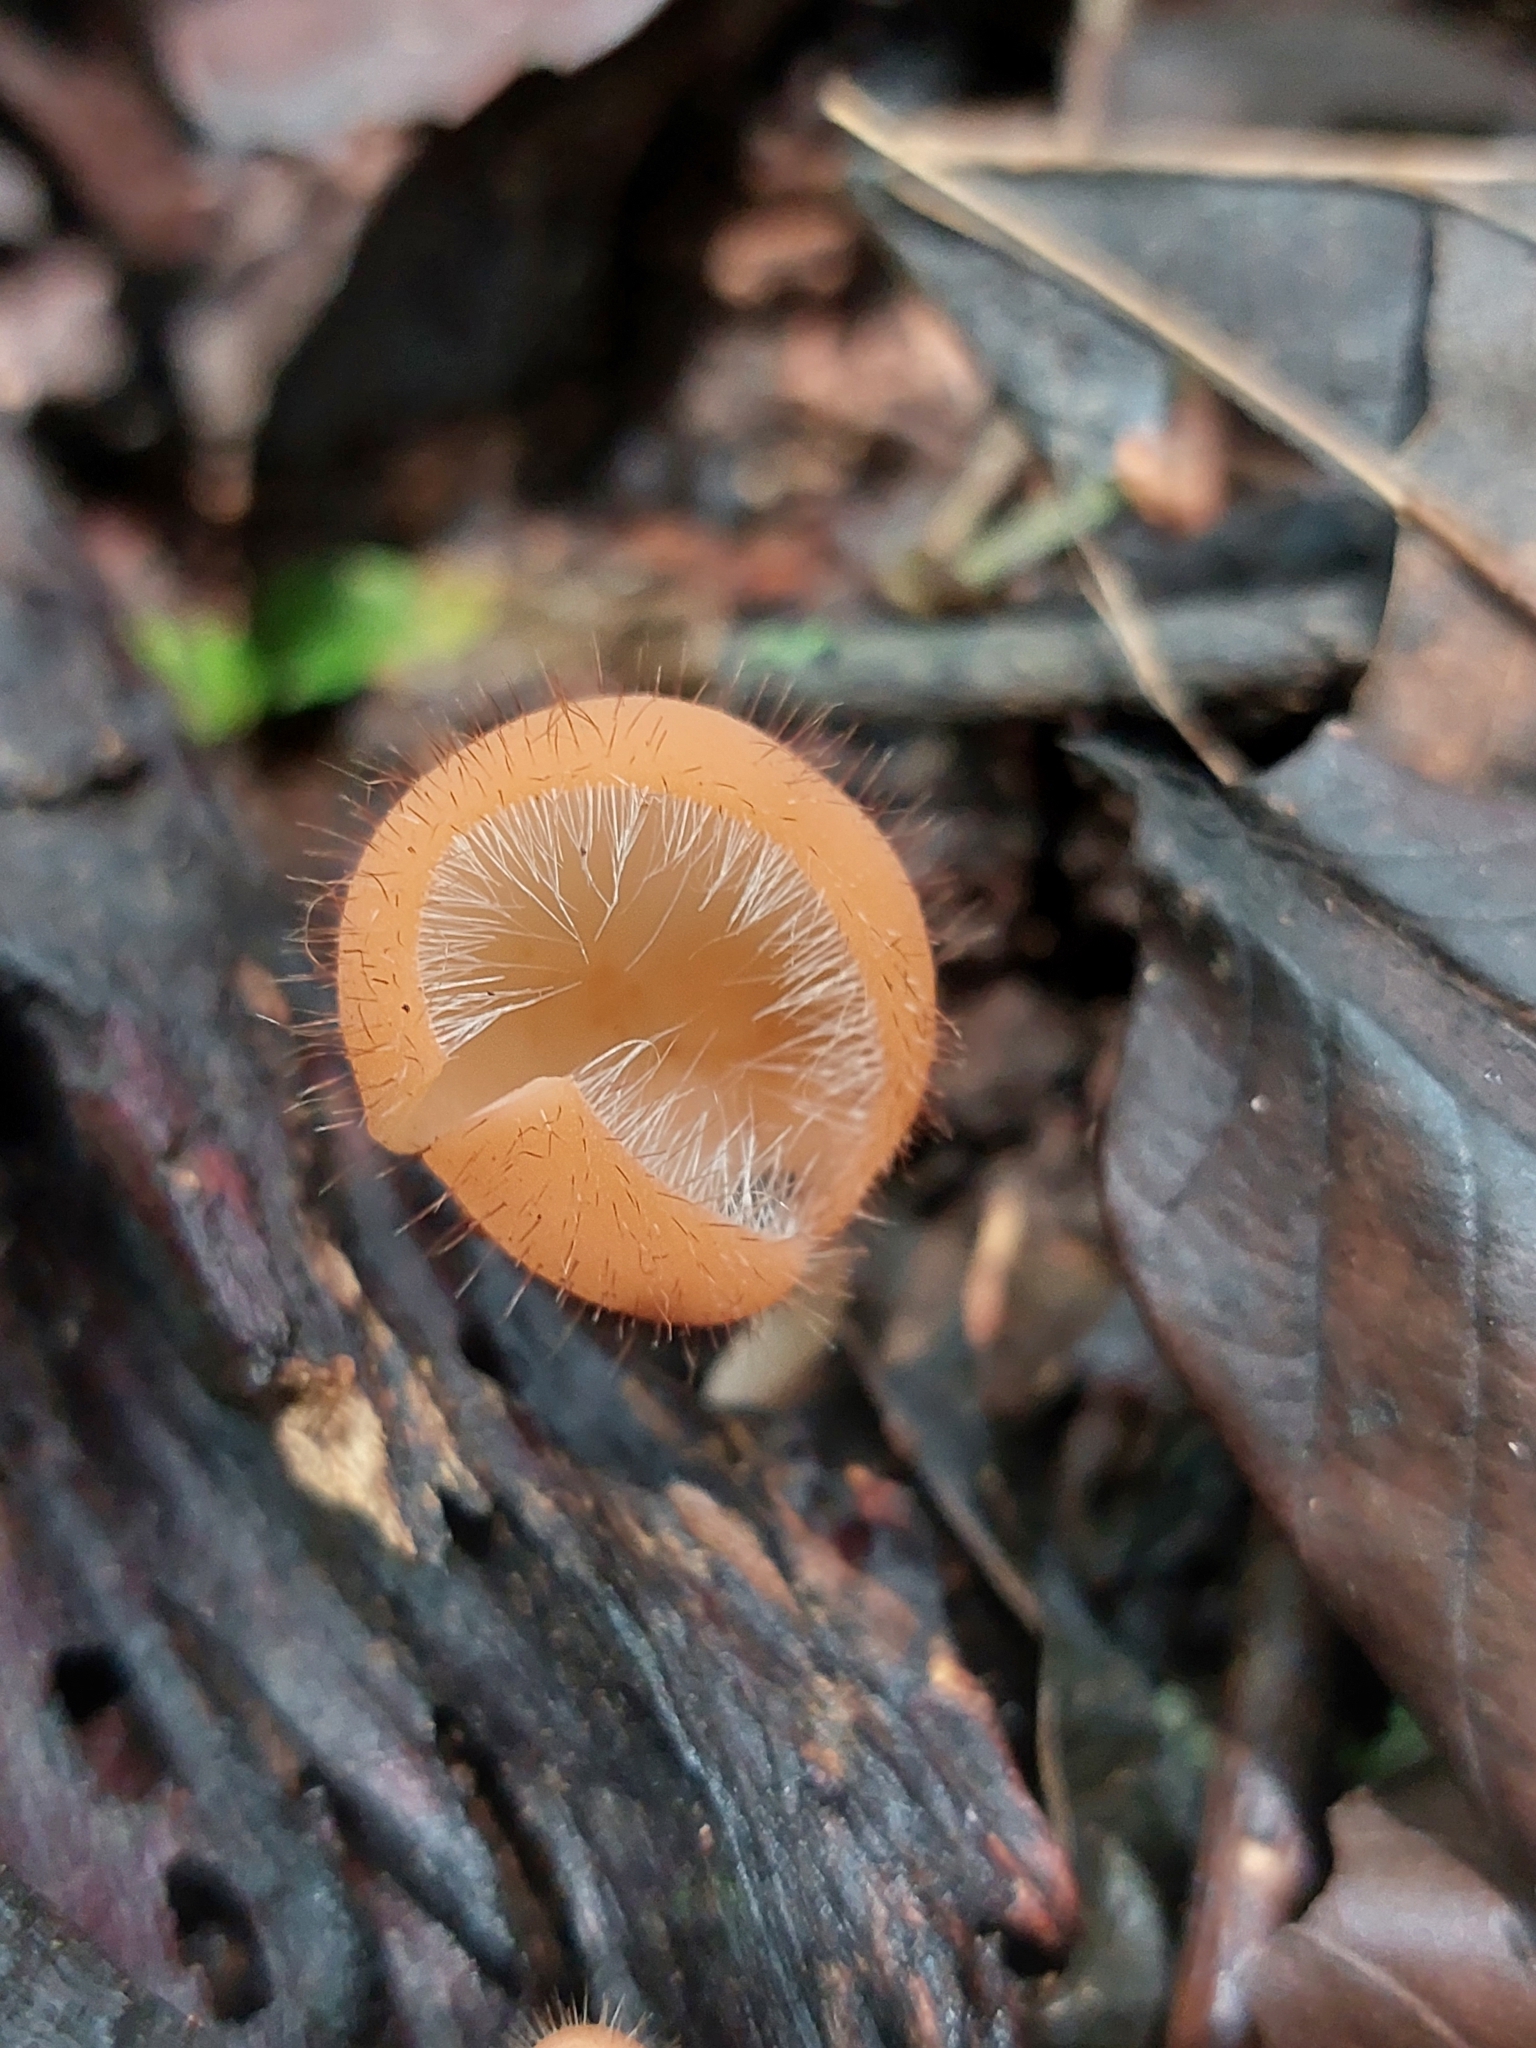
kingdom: Fungi
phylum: Ascomycota
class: Pezizomycetes
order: Pezizales
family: Sarcoscyphaceae
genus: Cookeina
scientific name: Cookeina tricholoma
